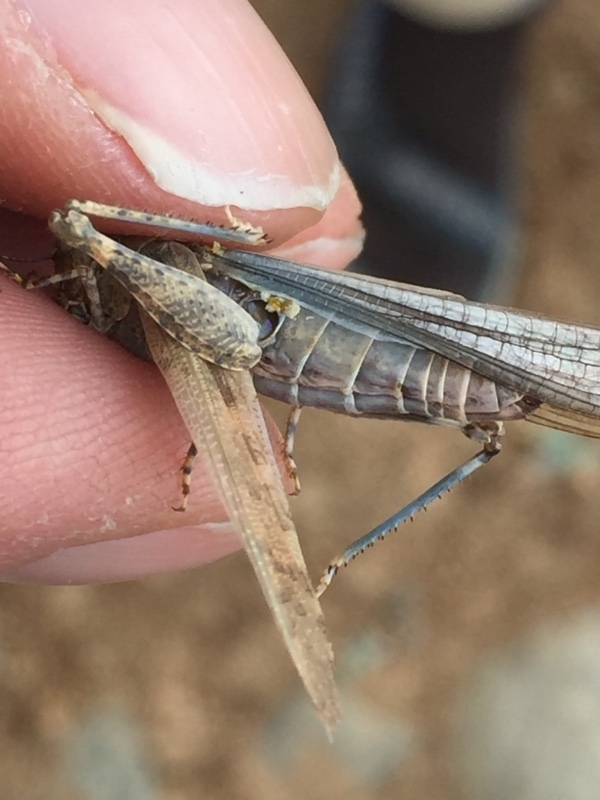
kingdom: Animalia
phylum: Arthropoda
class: Insecta
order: Orthoptera
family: Acrididae
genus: Sphingonotus
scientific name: Sphingonotus rubescens
